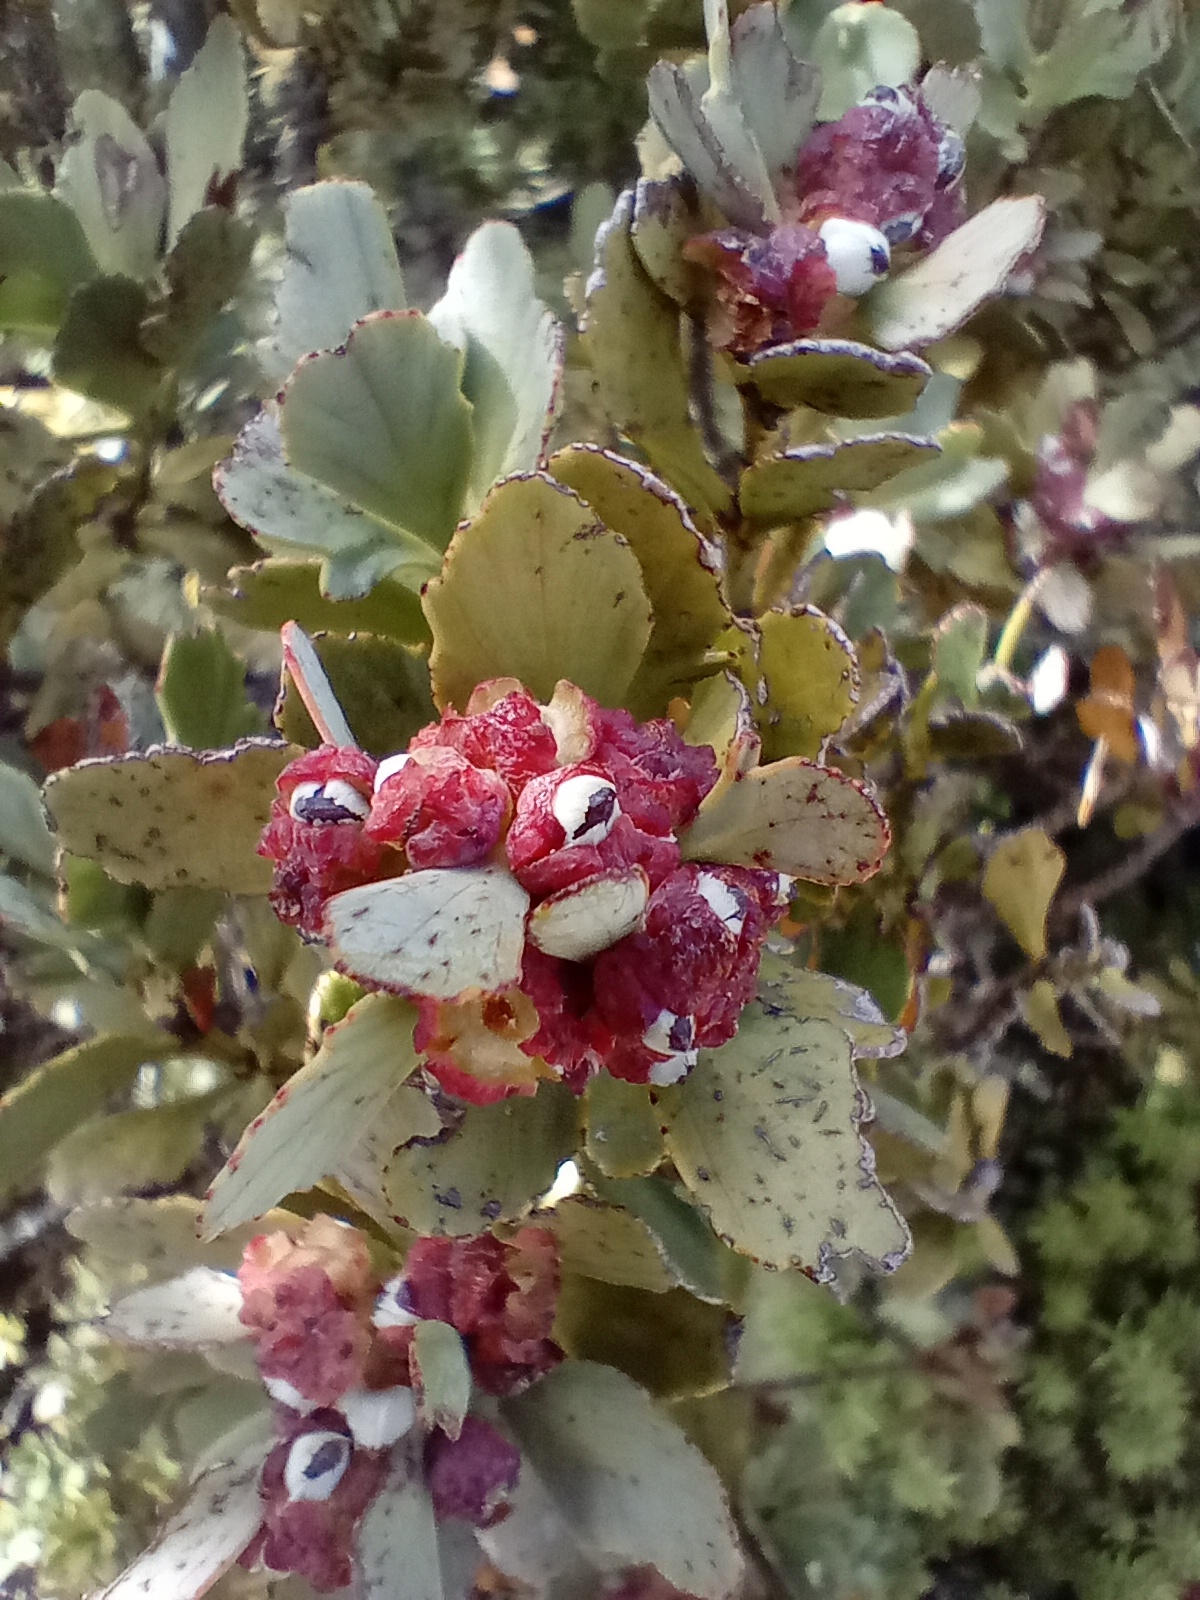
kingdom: Plantae
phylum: Tracheophyta
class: Pinopsida
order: Pinales
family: Phyllocladaceae
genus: Phyllocladus
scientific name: Phyllocladus trichomanoides
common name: Celery pine
